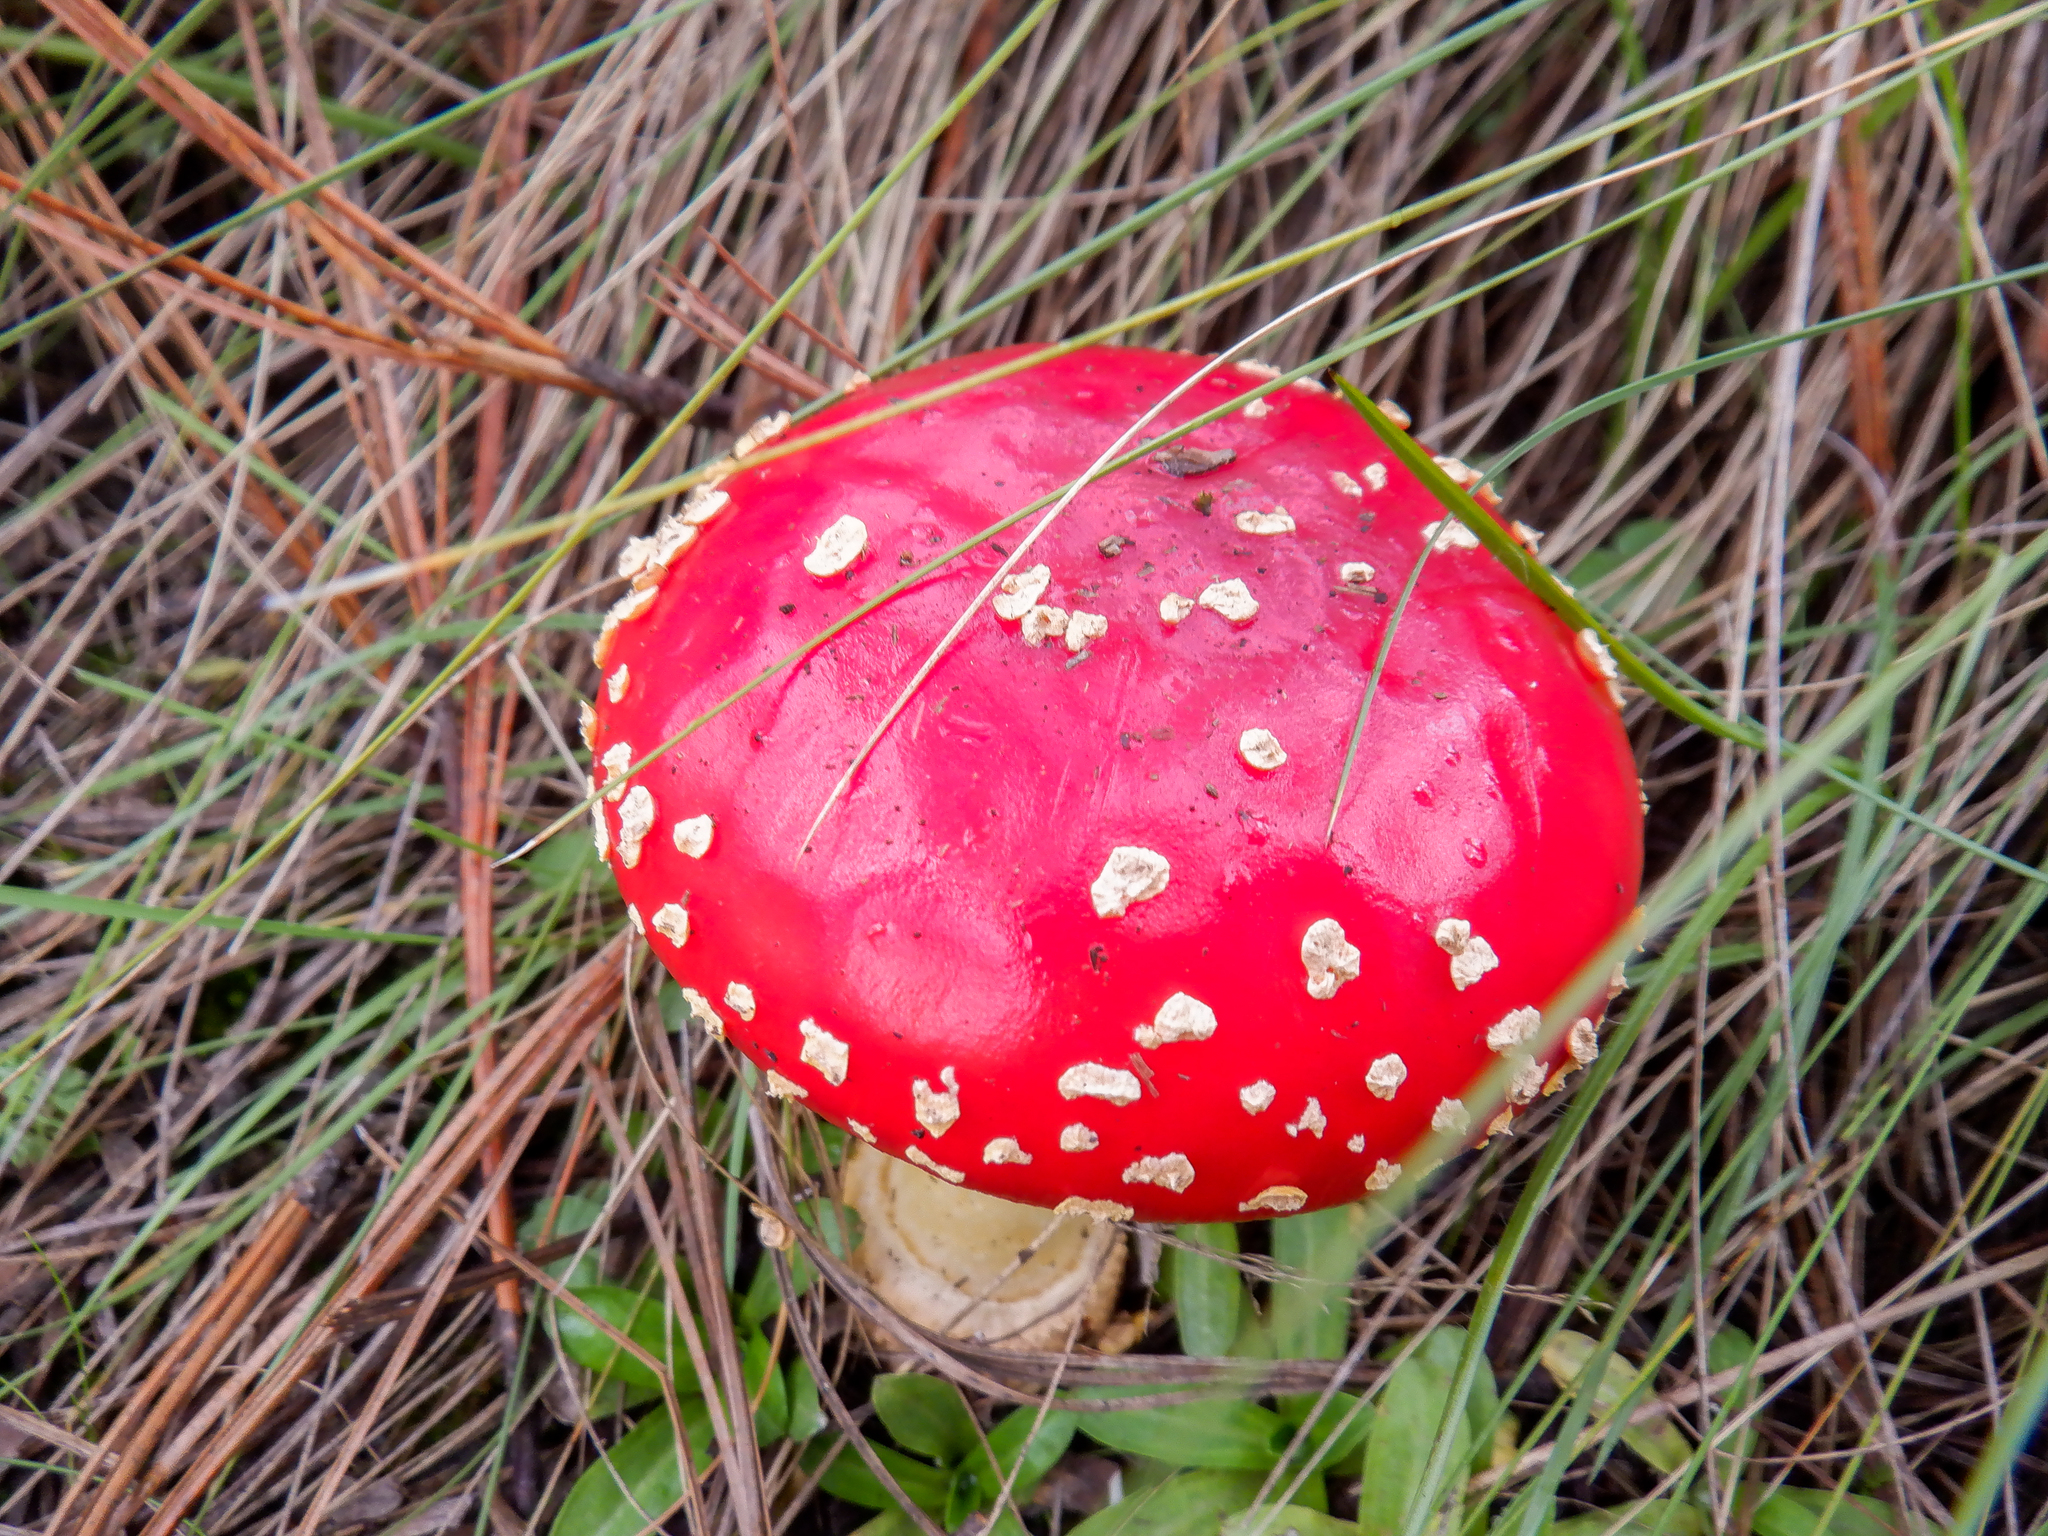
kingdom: Fungi
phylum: Basidiomycota
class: Agaricomycetes
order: Agaricales
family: Amanitaceae
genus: Amanita
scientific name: Amanita muscaria
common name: Fly agaric
